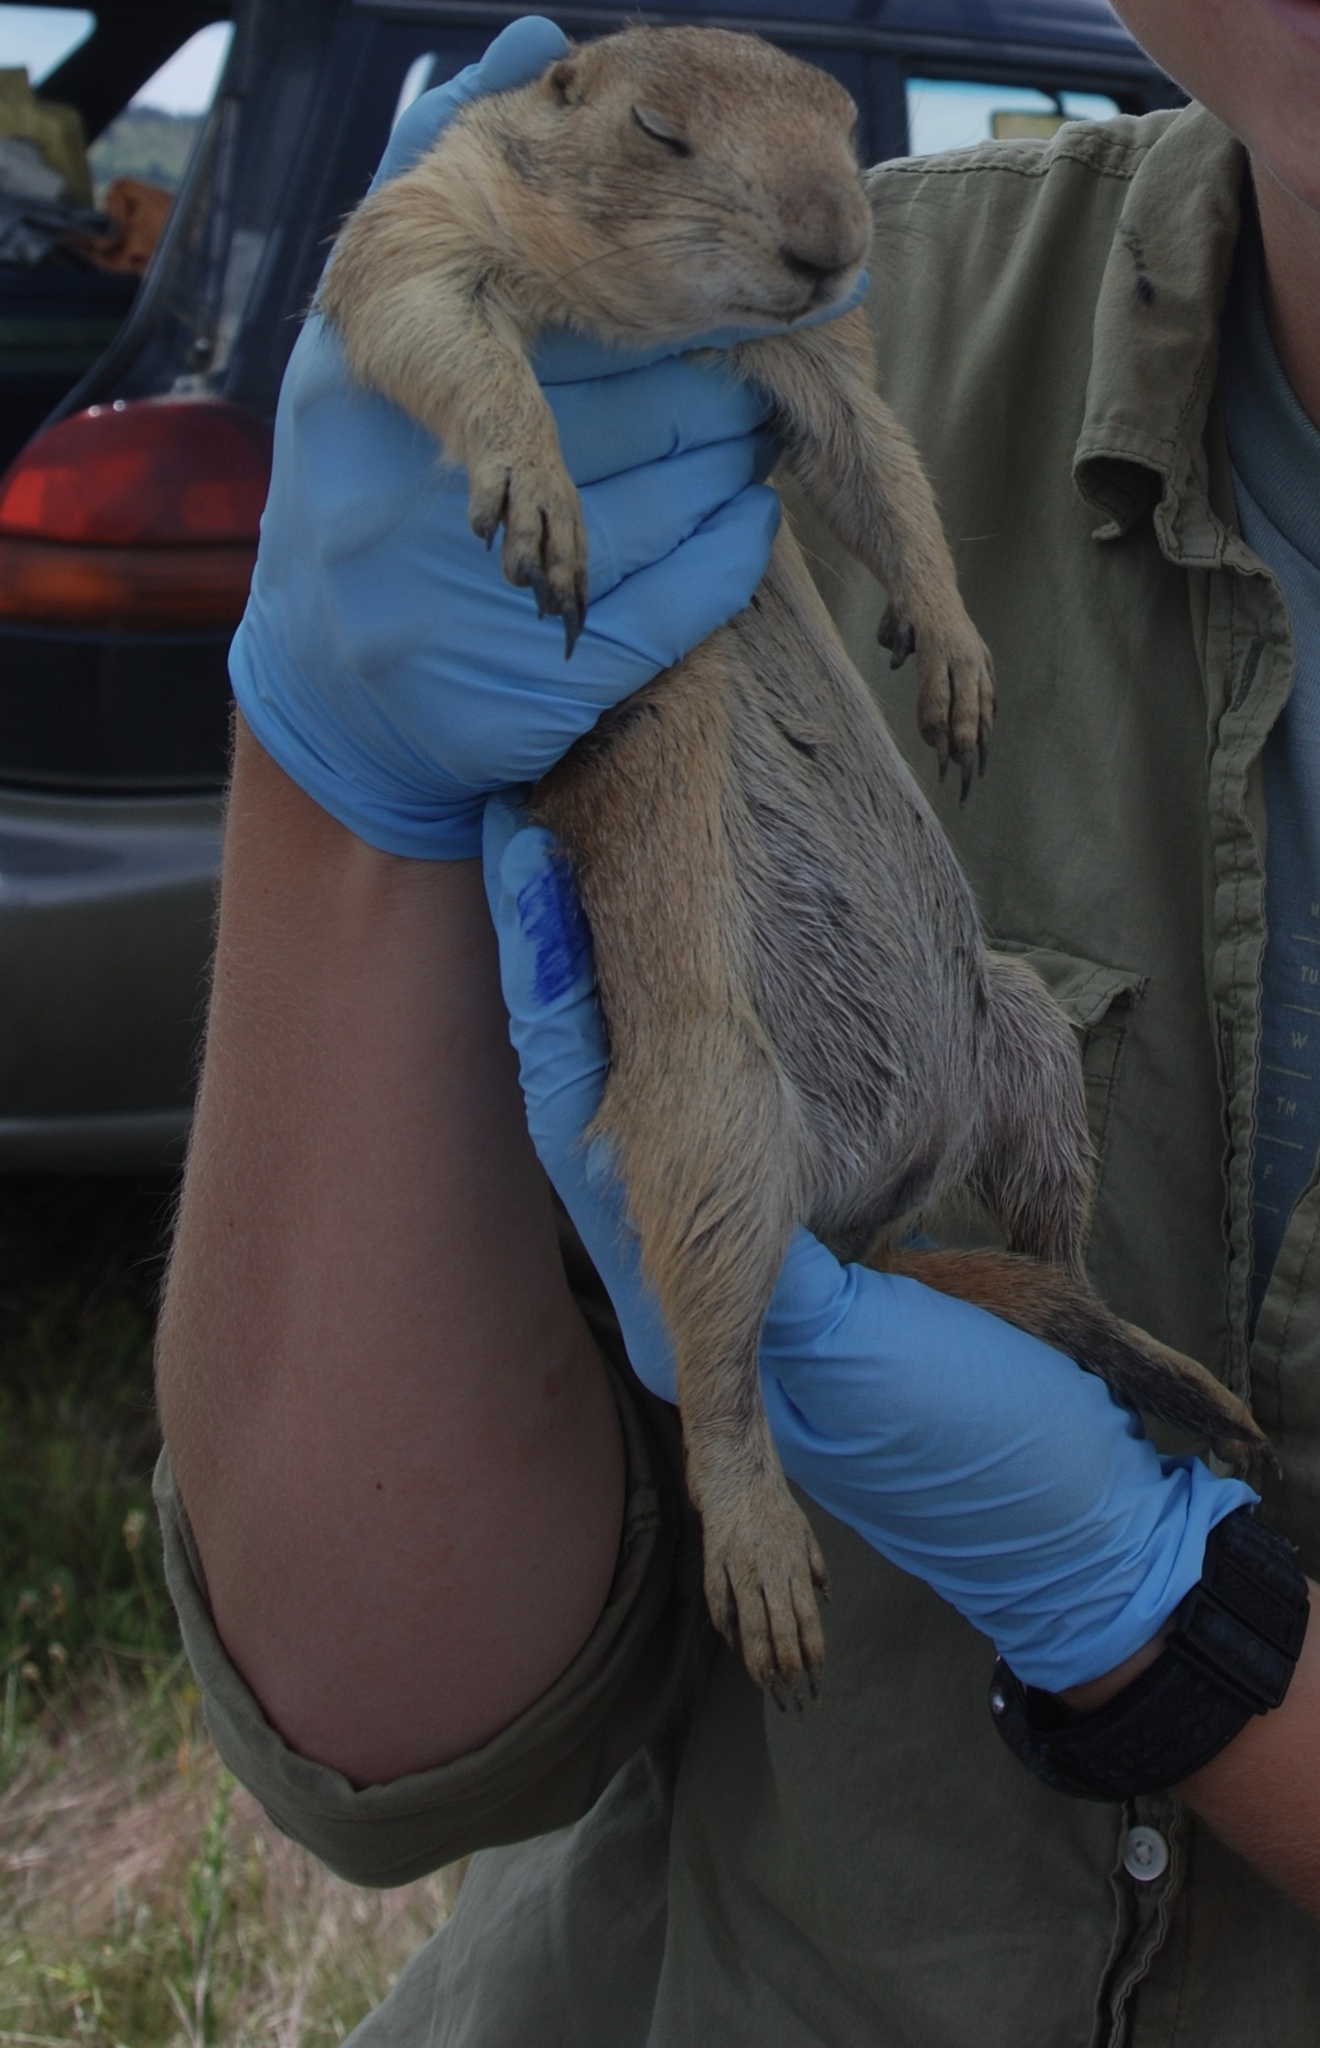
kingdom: Animalia
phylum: Chordata
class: Mammalia
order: Rodentia
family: Sciuridae
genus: Cynomys
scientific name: Cynomys ludovicianus
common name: Black-tailed prairie dog
